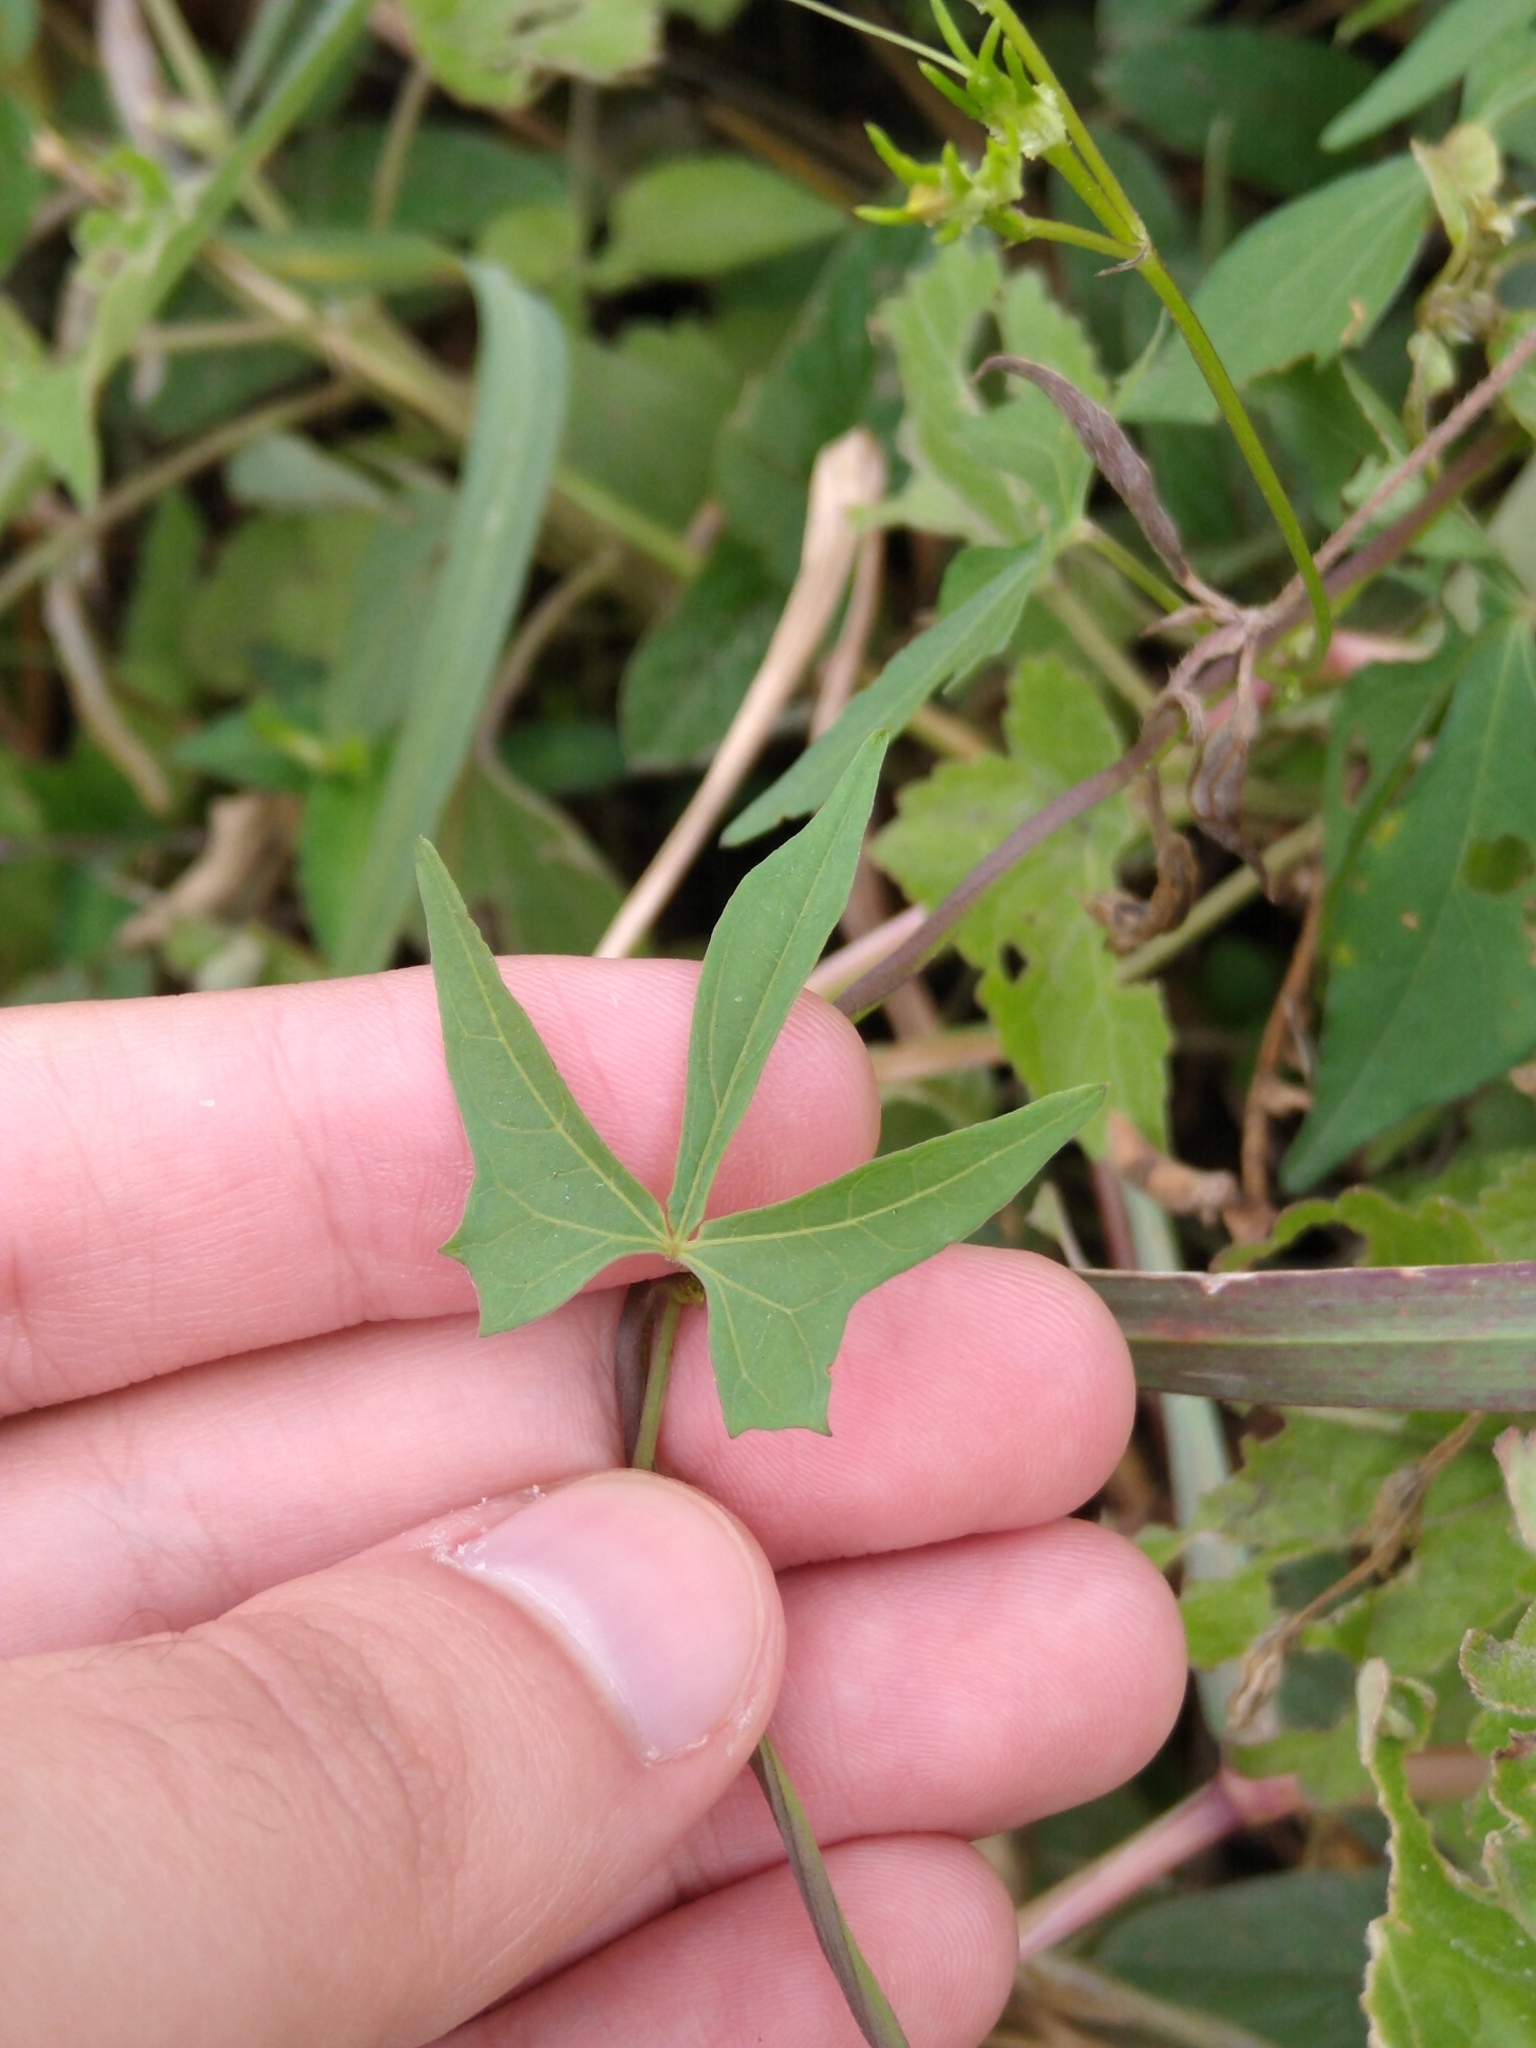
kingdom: Plantae
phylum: Tracheophyta
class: Magnoliopsida
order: Solanales
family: Convolvulaceae
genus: Ipomoea
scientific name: Ipomoea cholulensis
